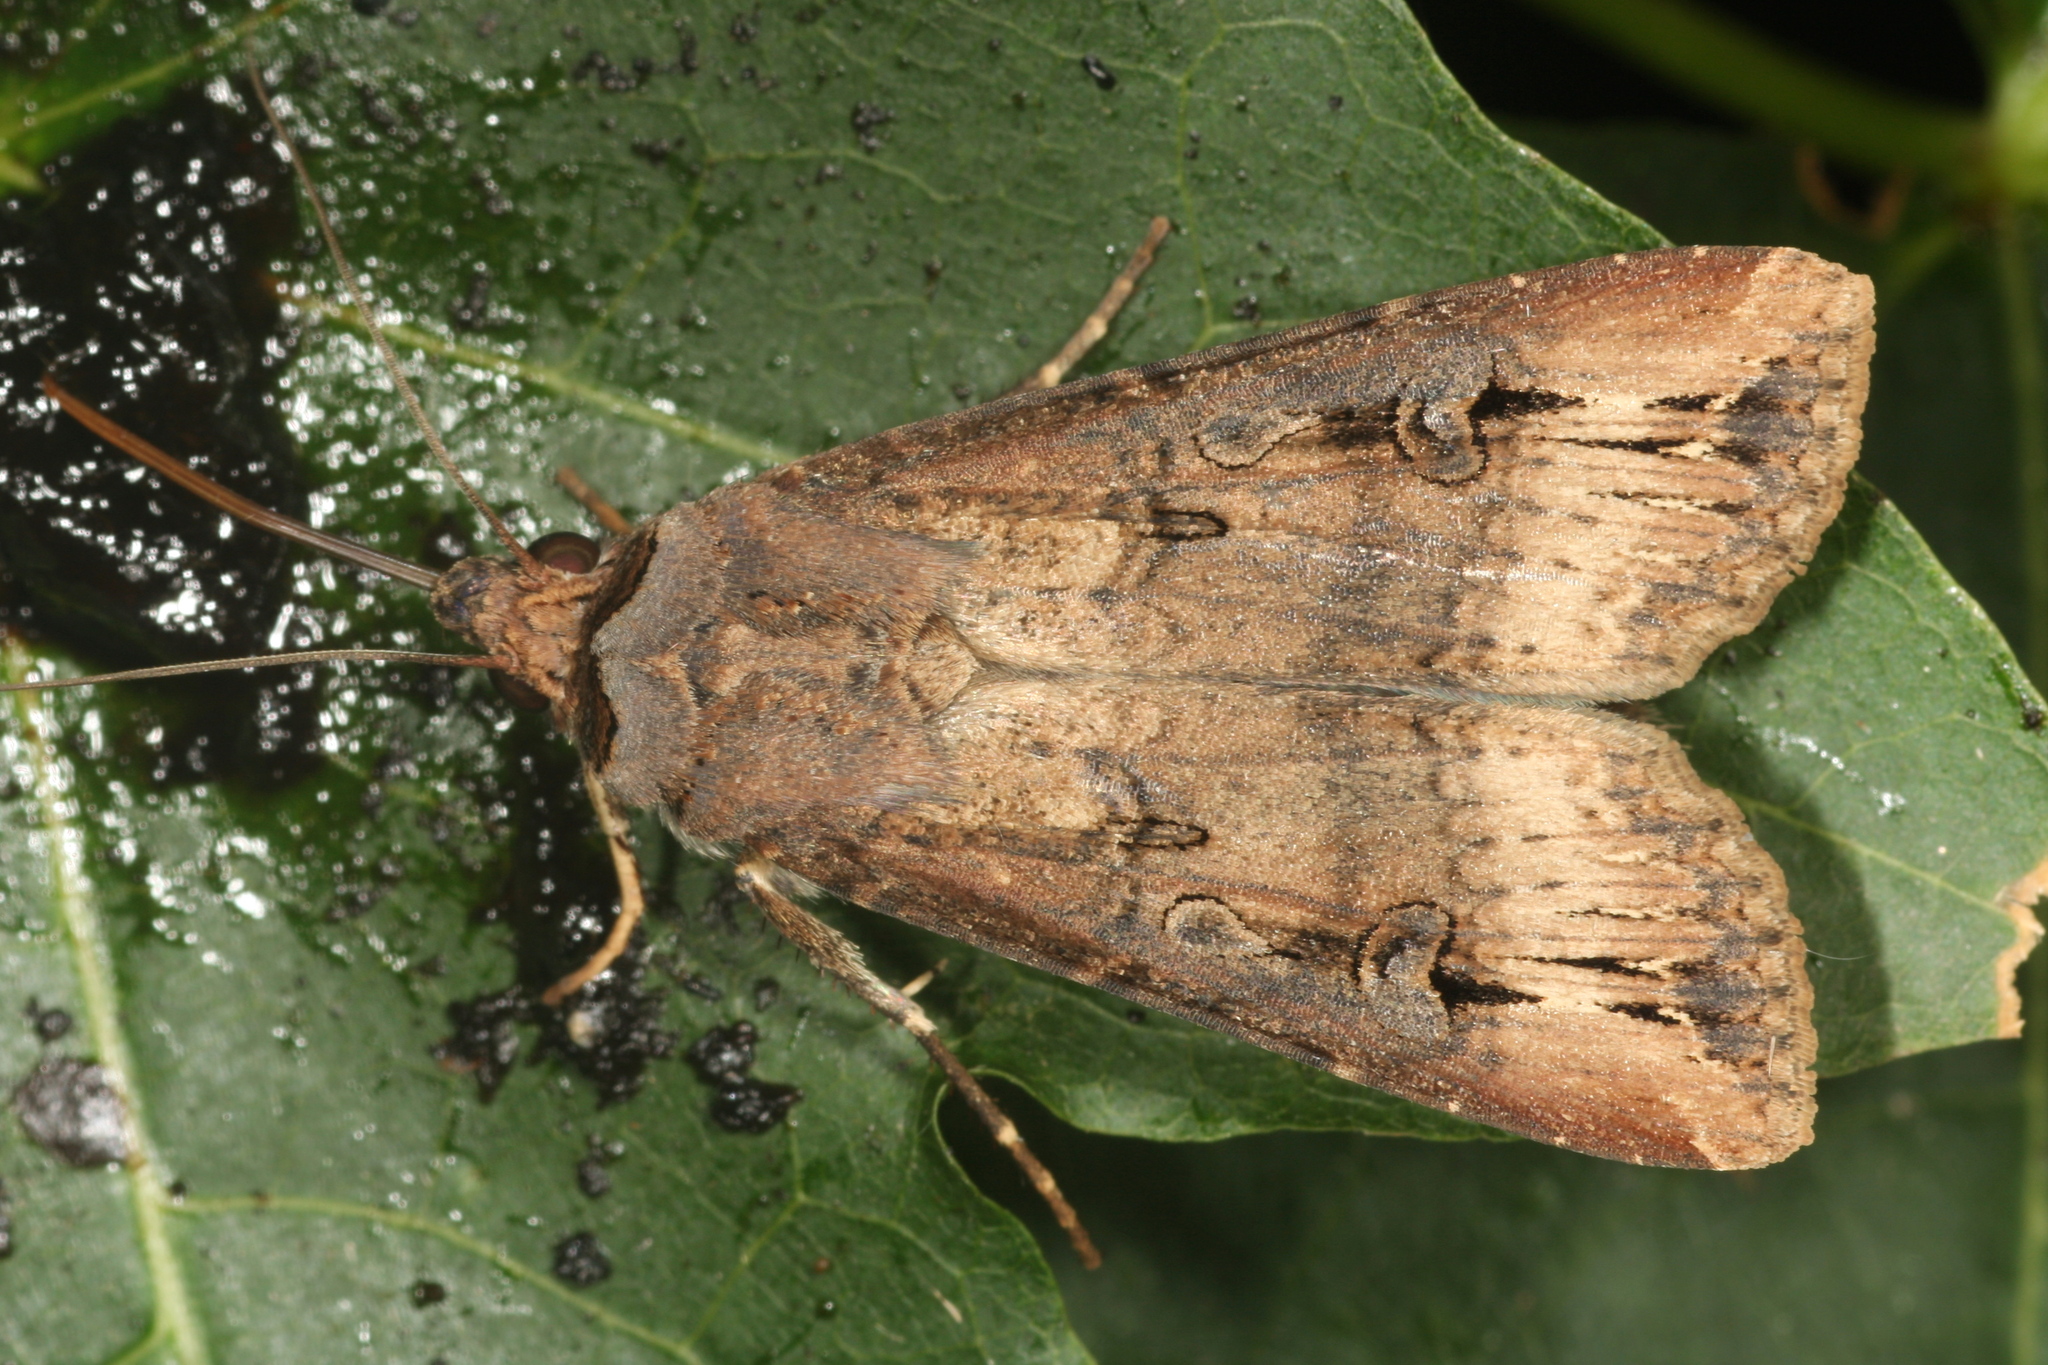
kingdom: Animalia
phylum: Arthropoda
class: Insecta
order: Lepidoptera
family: Noctuidae
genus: Agrotis
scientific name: Agrotis ipsilon
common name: Dark sword-grass
